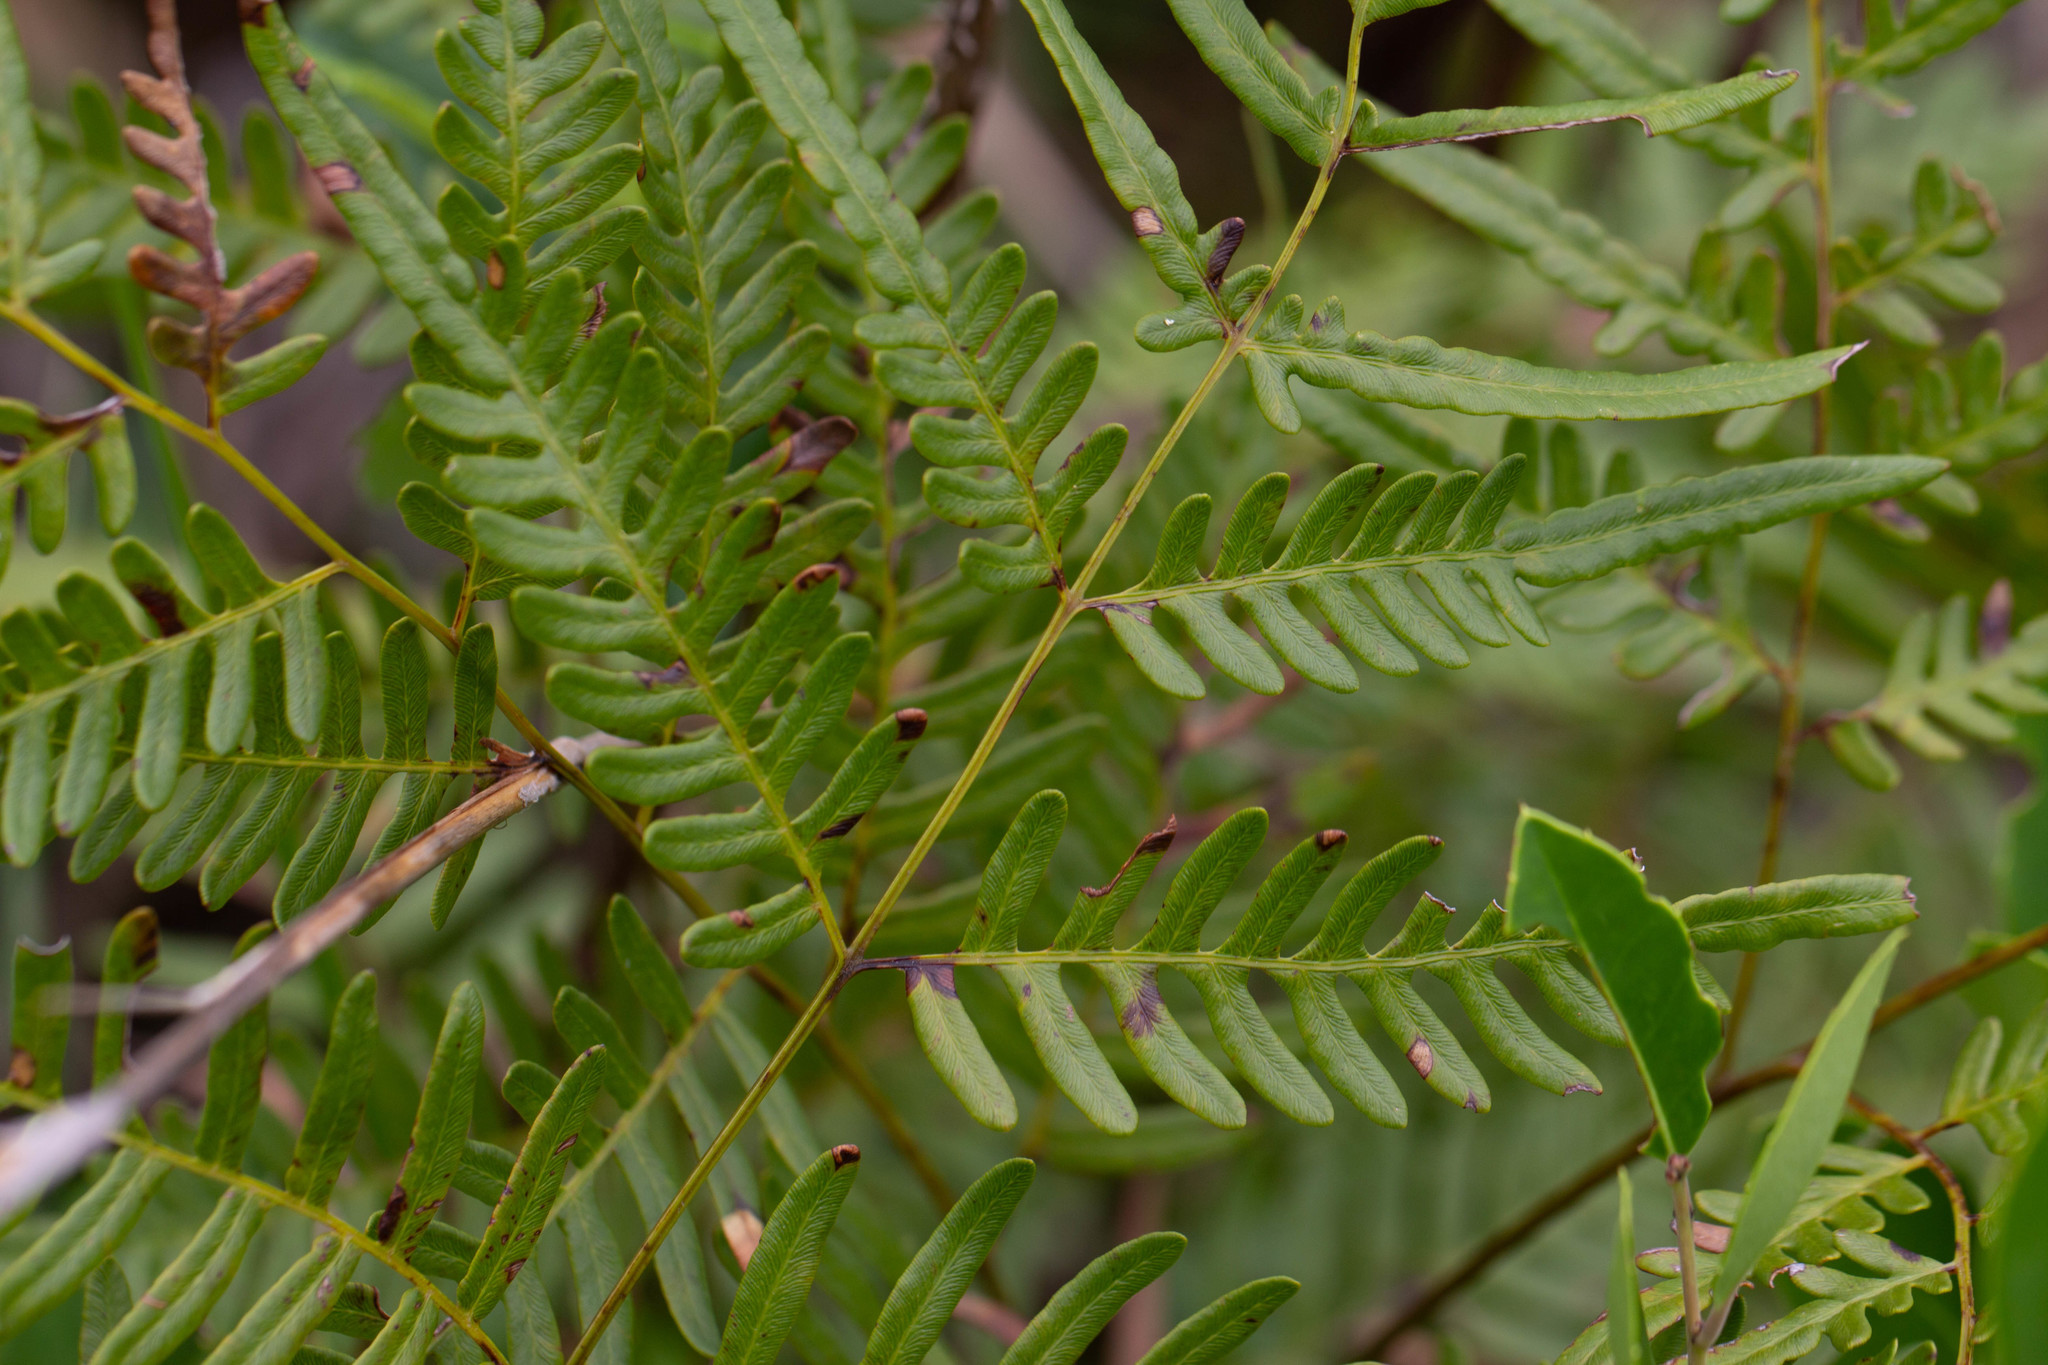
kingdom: Plantae
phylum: Tracheophyta
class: Polypodiopsida
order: Polypodiales
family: Dennstaedtiaceae
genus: Pteridium
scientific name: Pteridium
